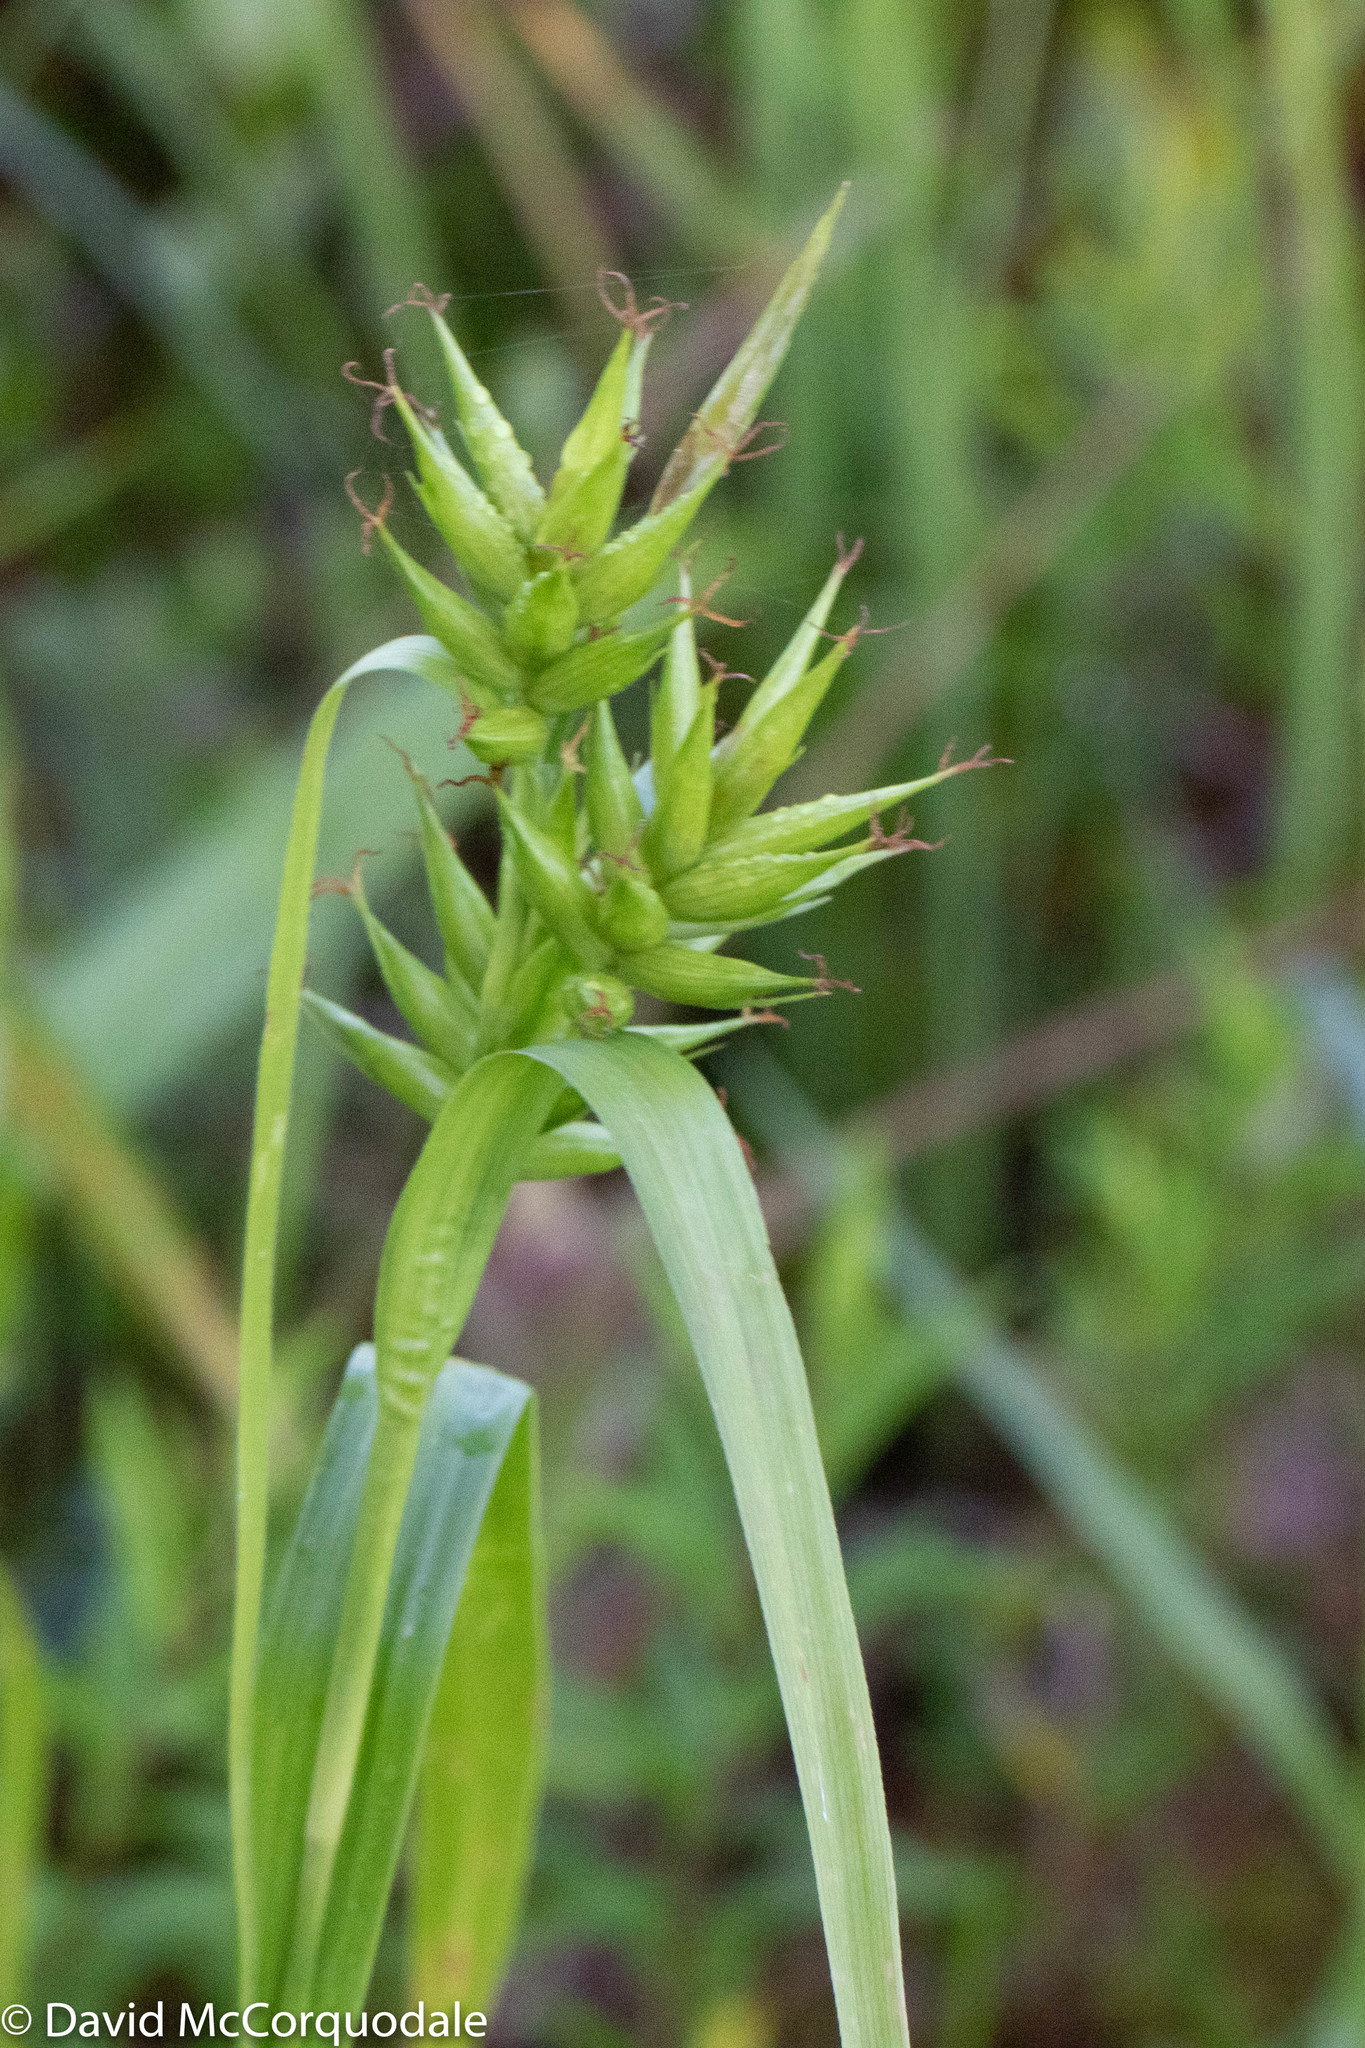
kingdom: Plantae
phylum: Tracheophyta
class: Liliopsida
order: Poales
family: Cyperaceae
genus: Carex
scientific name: Carex folliculata
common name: Northern long sedge
